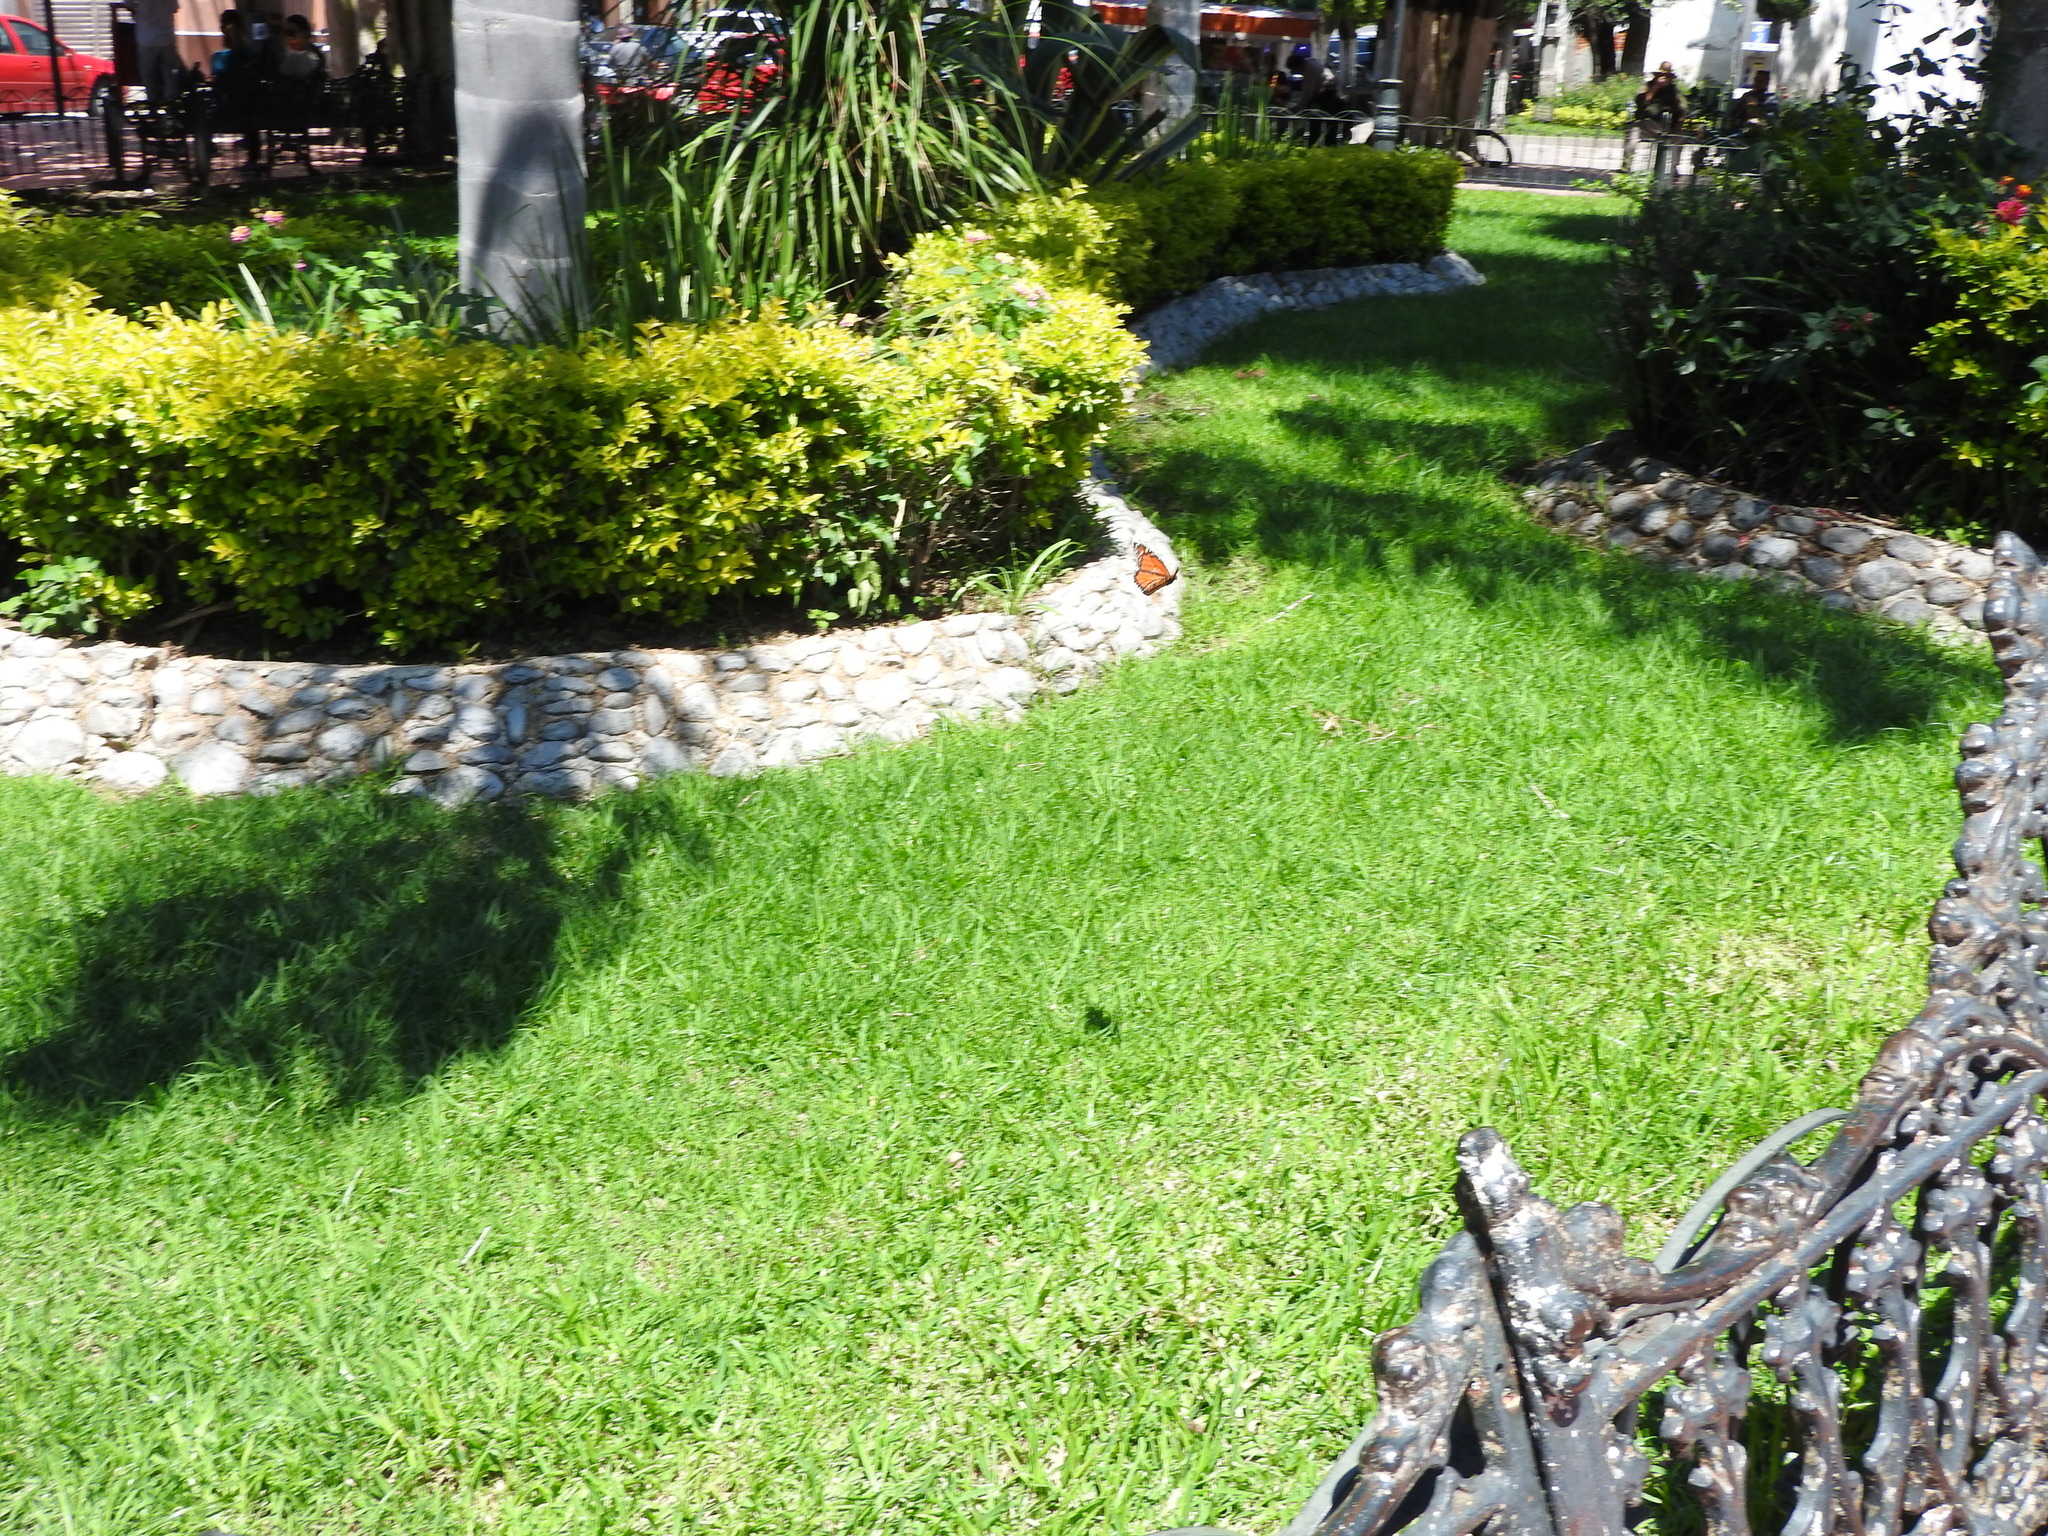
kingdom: Animalia
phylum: Arthropoda
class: Insecta
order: Lepidoptera
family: Nymphalidae
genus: Danaus
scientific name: Danaus plexippus
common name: Monarch
